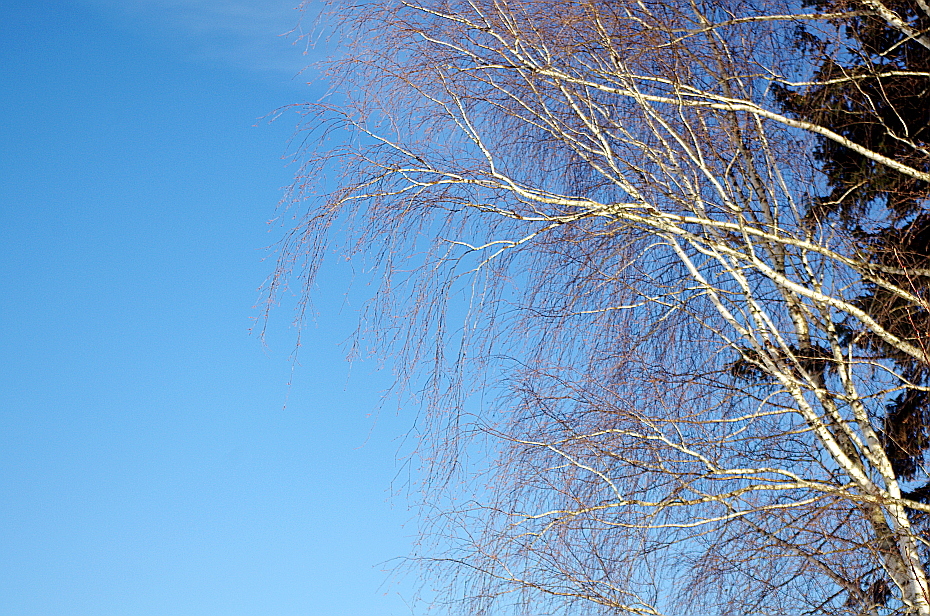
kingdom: Plantae
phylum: Tracheophyta
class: Magnoliopsida
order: Fagales
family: Betulaceae
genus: Betula
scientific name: Betula pendula
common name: Silver birch
